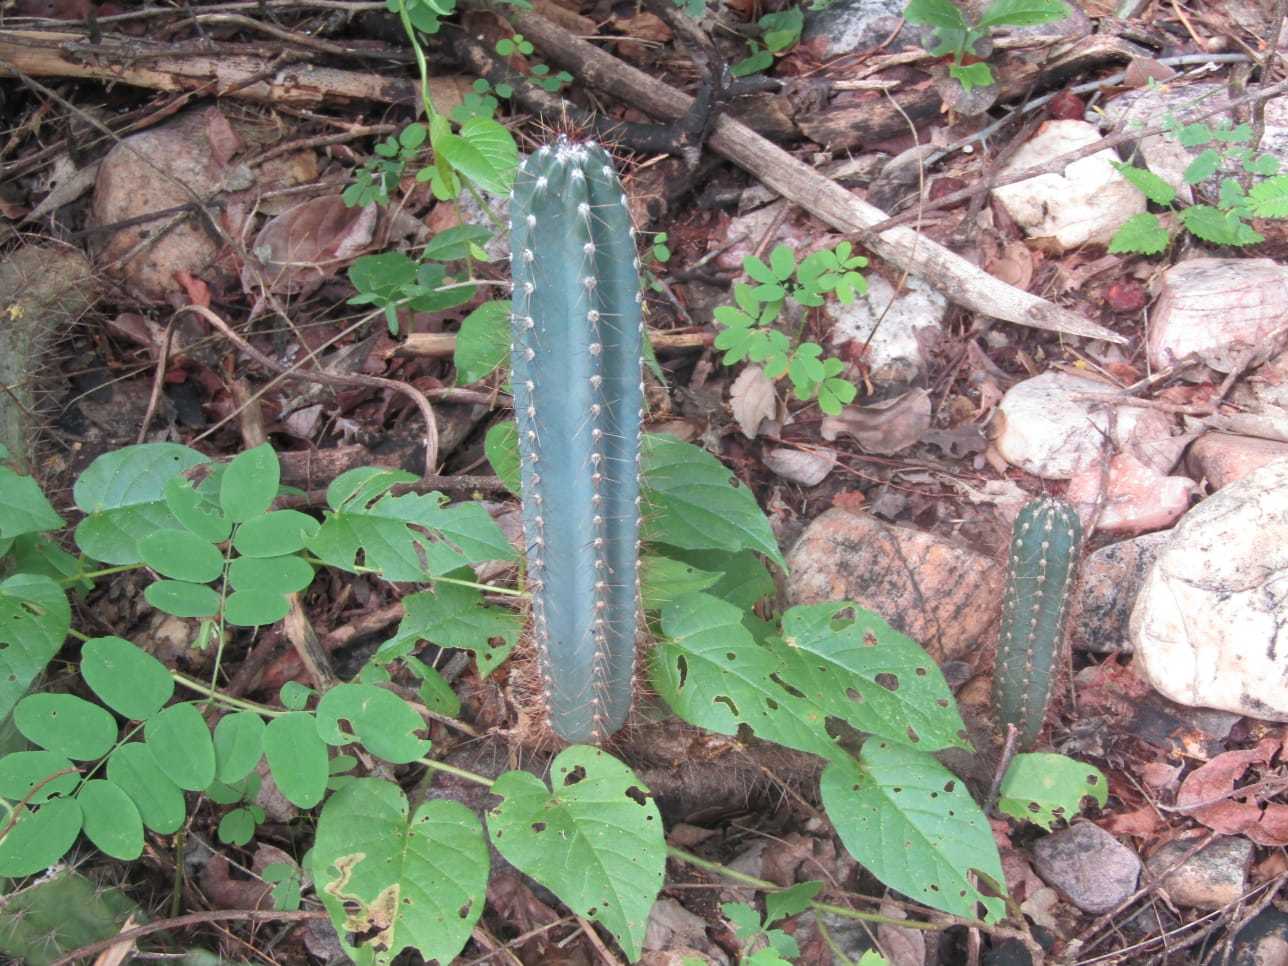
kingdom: Plantae
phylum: Tracheophyta
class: Magnoliopsida
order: Caryophyllales
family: Cactaceae
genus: Cereus
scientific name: Cereus jamacaru
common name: Queen-of-the-night
